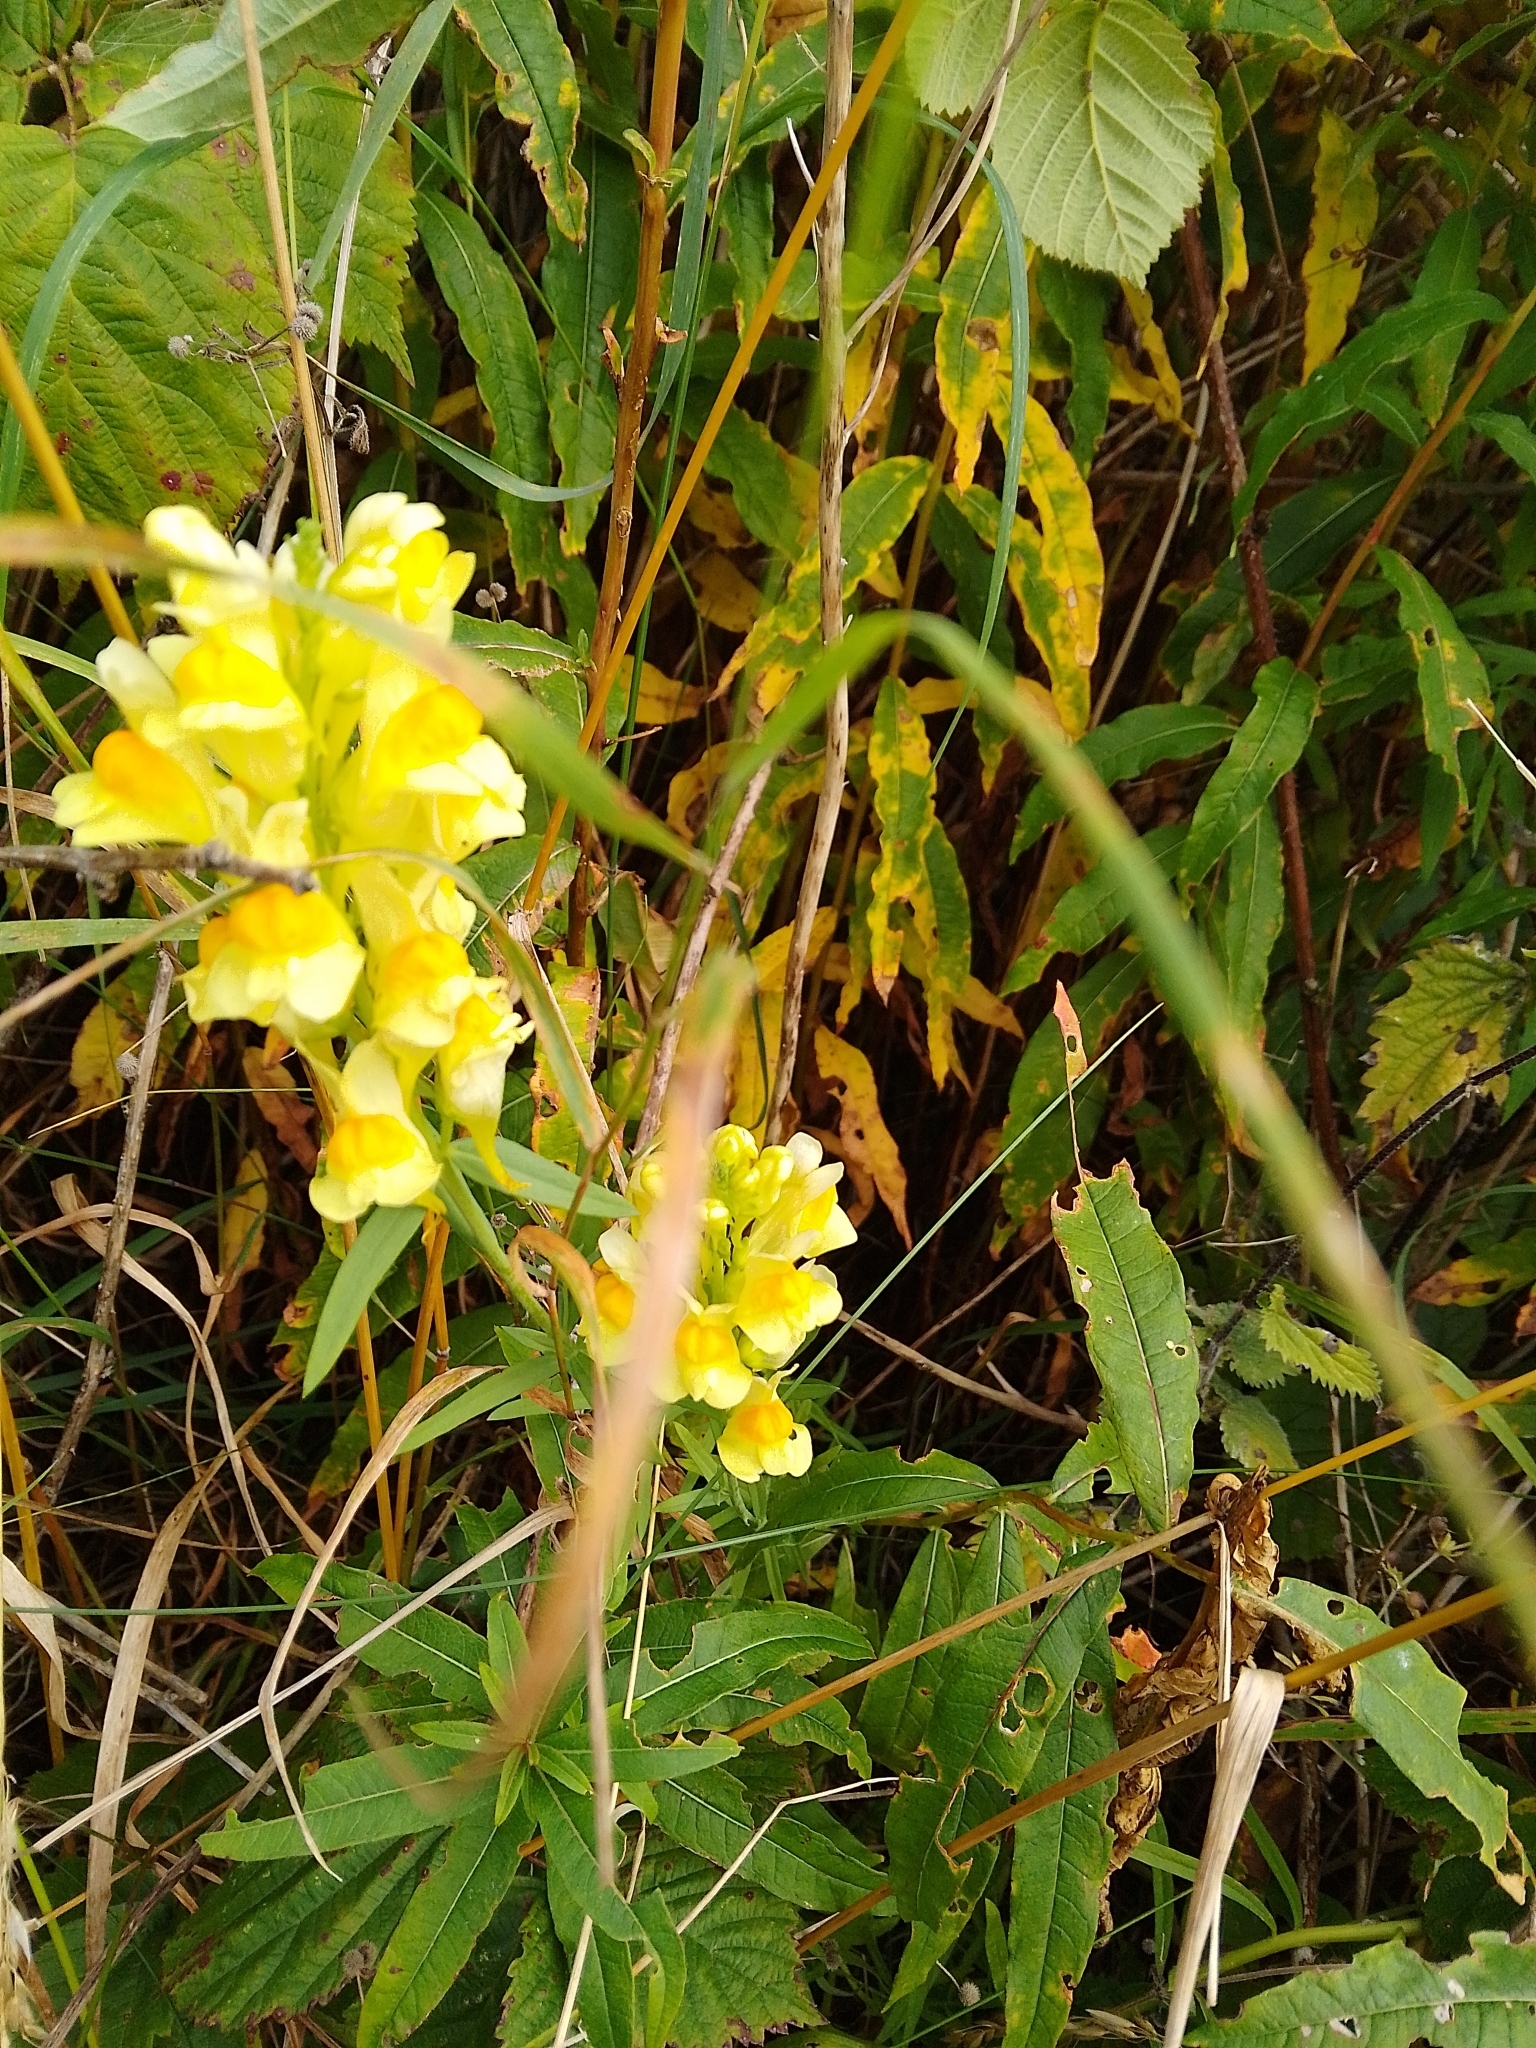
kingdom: Plantae
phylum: Tracheophyta
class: Magnoliopsida
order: Lamiales
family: Plantaginaceae
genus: Linaria
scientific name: Linaria vulgaris
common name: Butter and eggs
